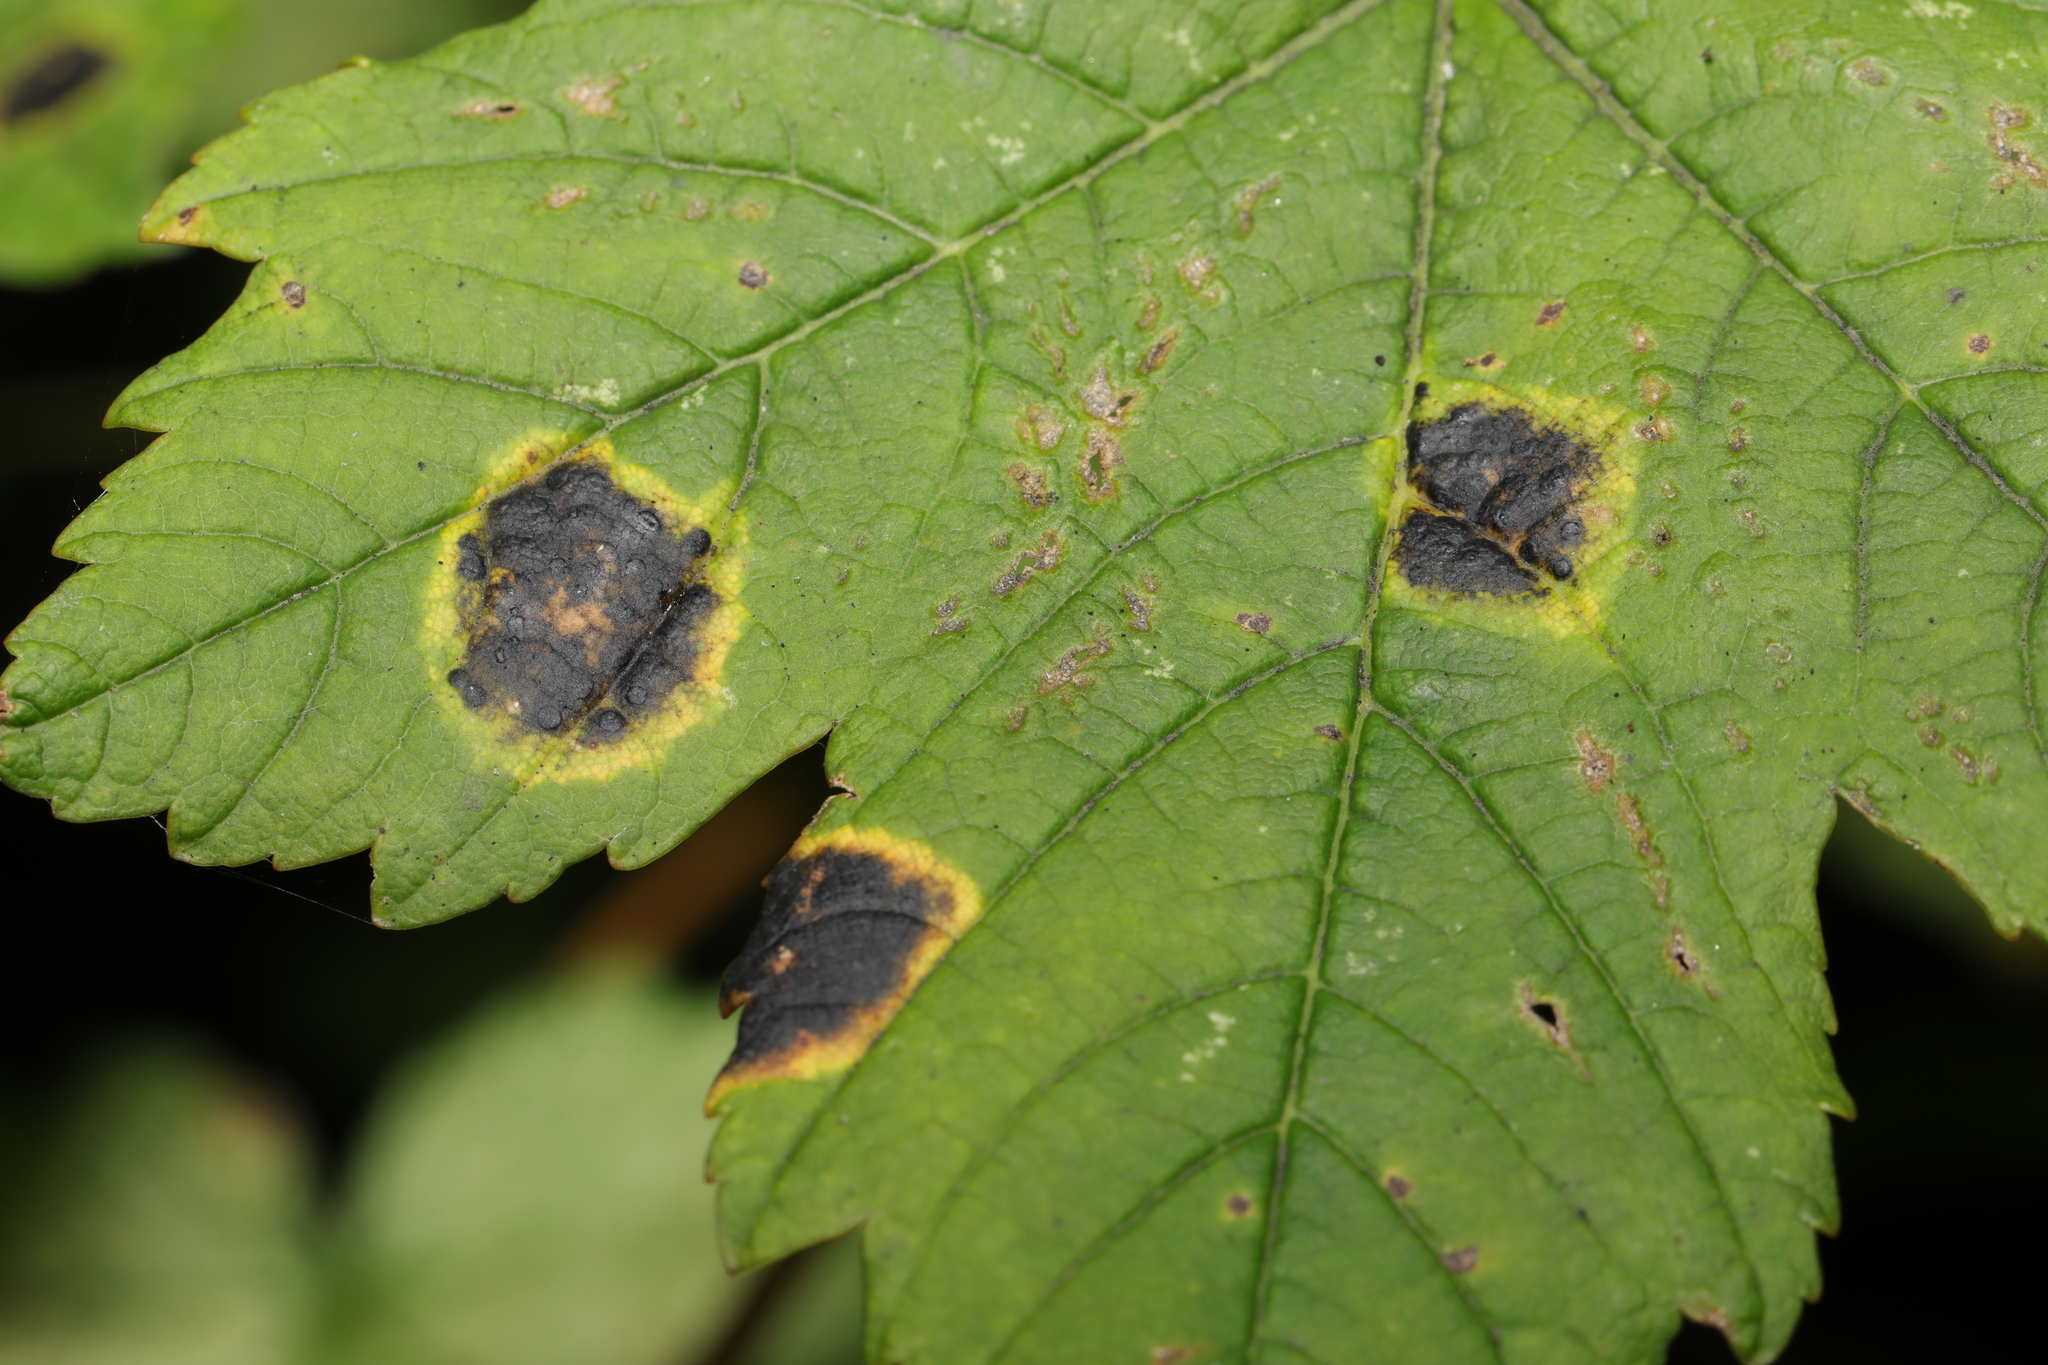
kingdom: Fungi
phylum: Ascomycota
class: Leotiomycetes
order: Rhytismatales
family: Rhytismataceae
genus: Rhytisma
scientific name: Rhytisma acerinum
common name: European tar spot
